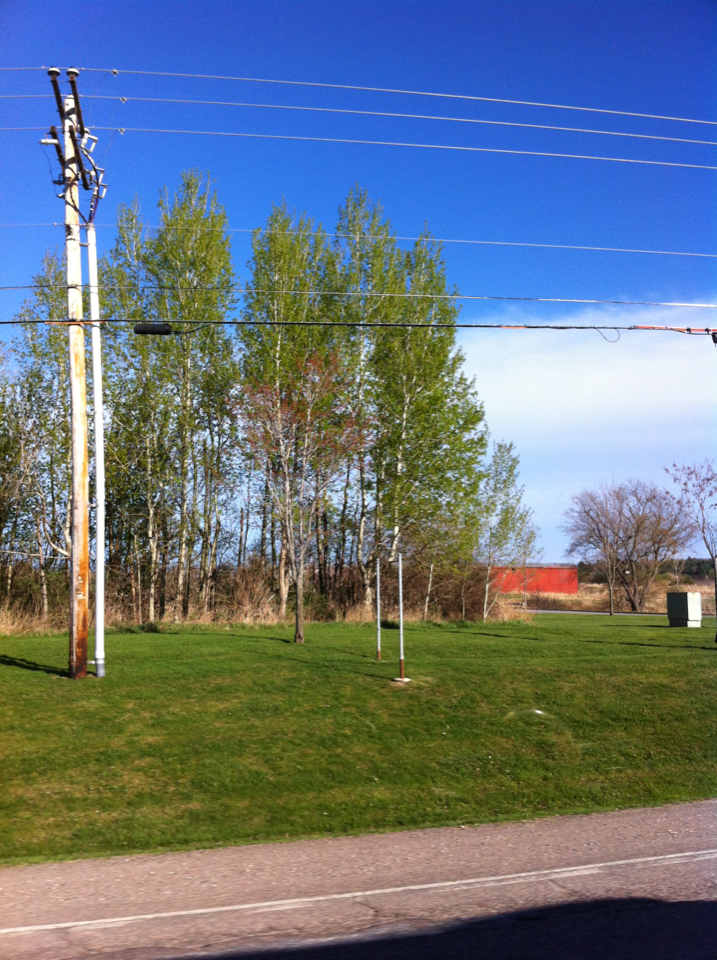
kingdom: Plantae
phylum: Tracheophyta
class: Magnoliopsida
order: Malpighiales
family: Salicaceae
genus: Populus
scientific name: Populus tremuloides
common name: Quaking aspen
